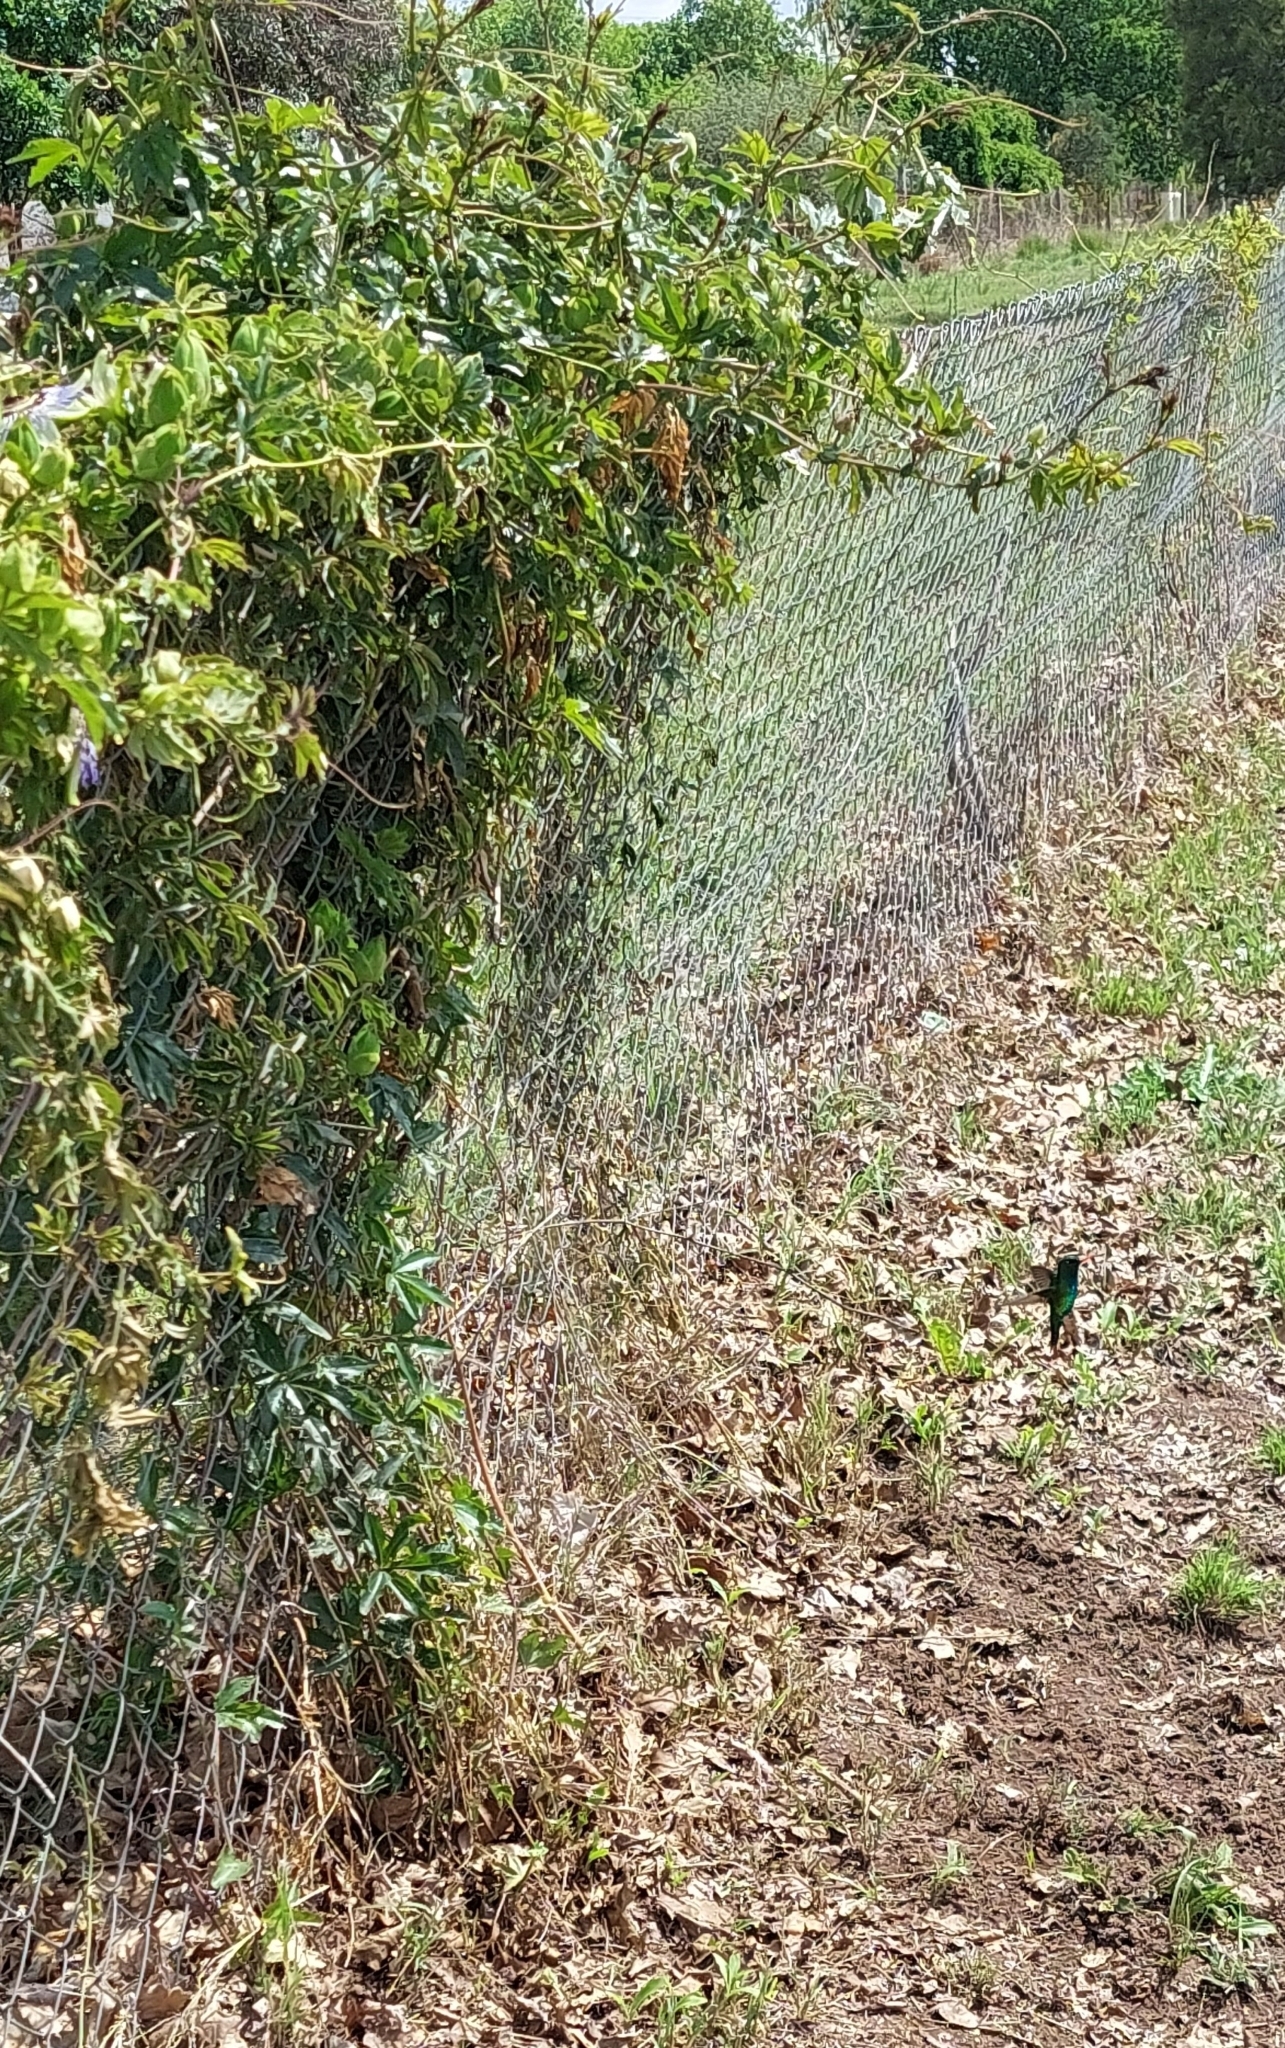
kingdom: Animalia
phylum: Chordata
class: Aves
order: Apodiformes
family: Trochilidae
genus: Chlorostilbon
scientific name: Chlorostilbon lucidus
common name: Glittering-bellied emerald
